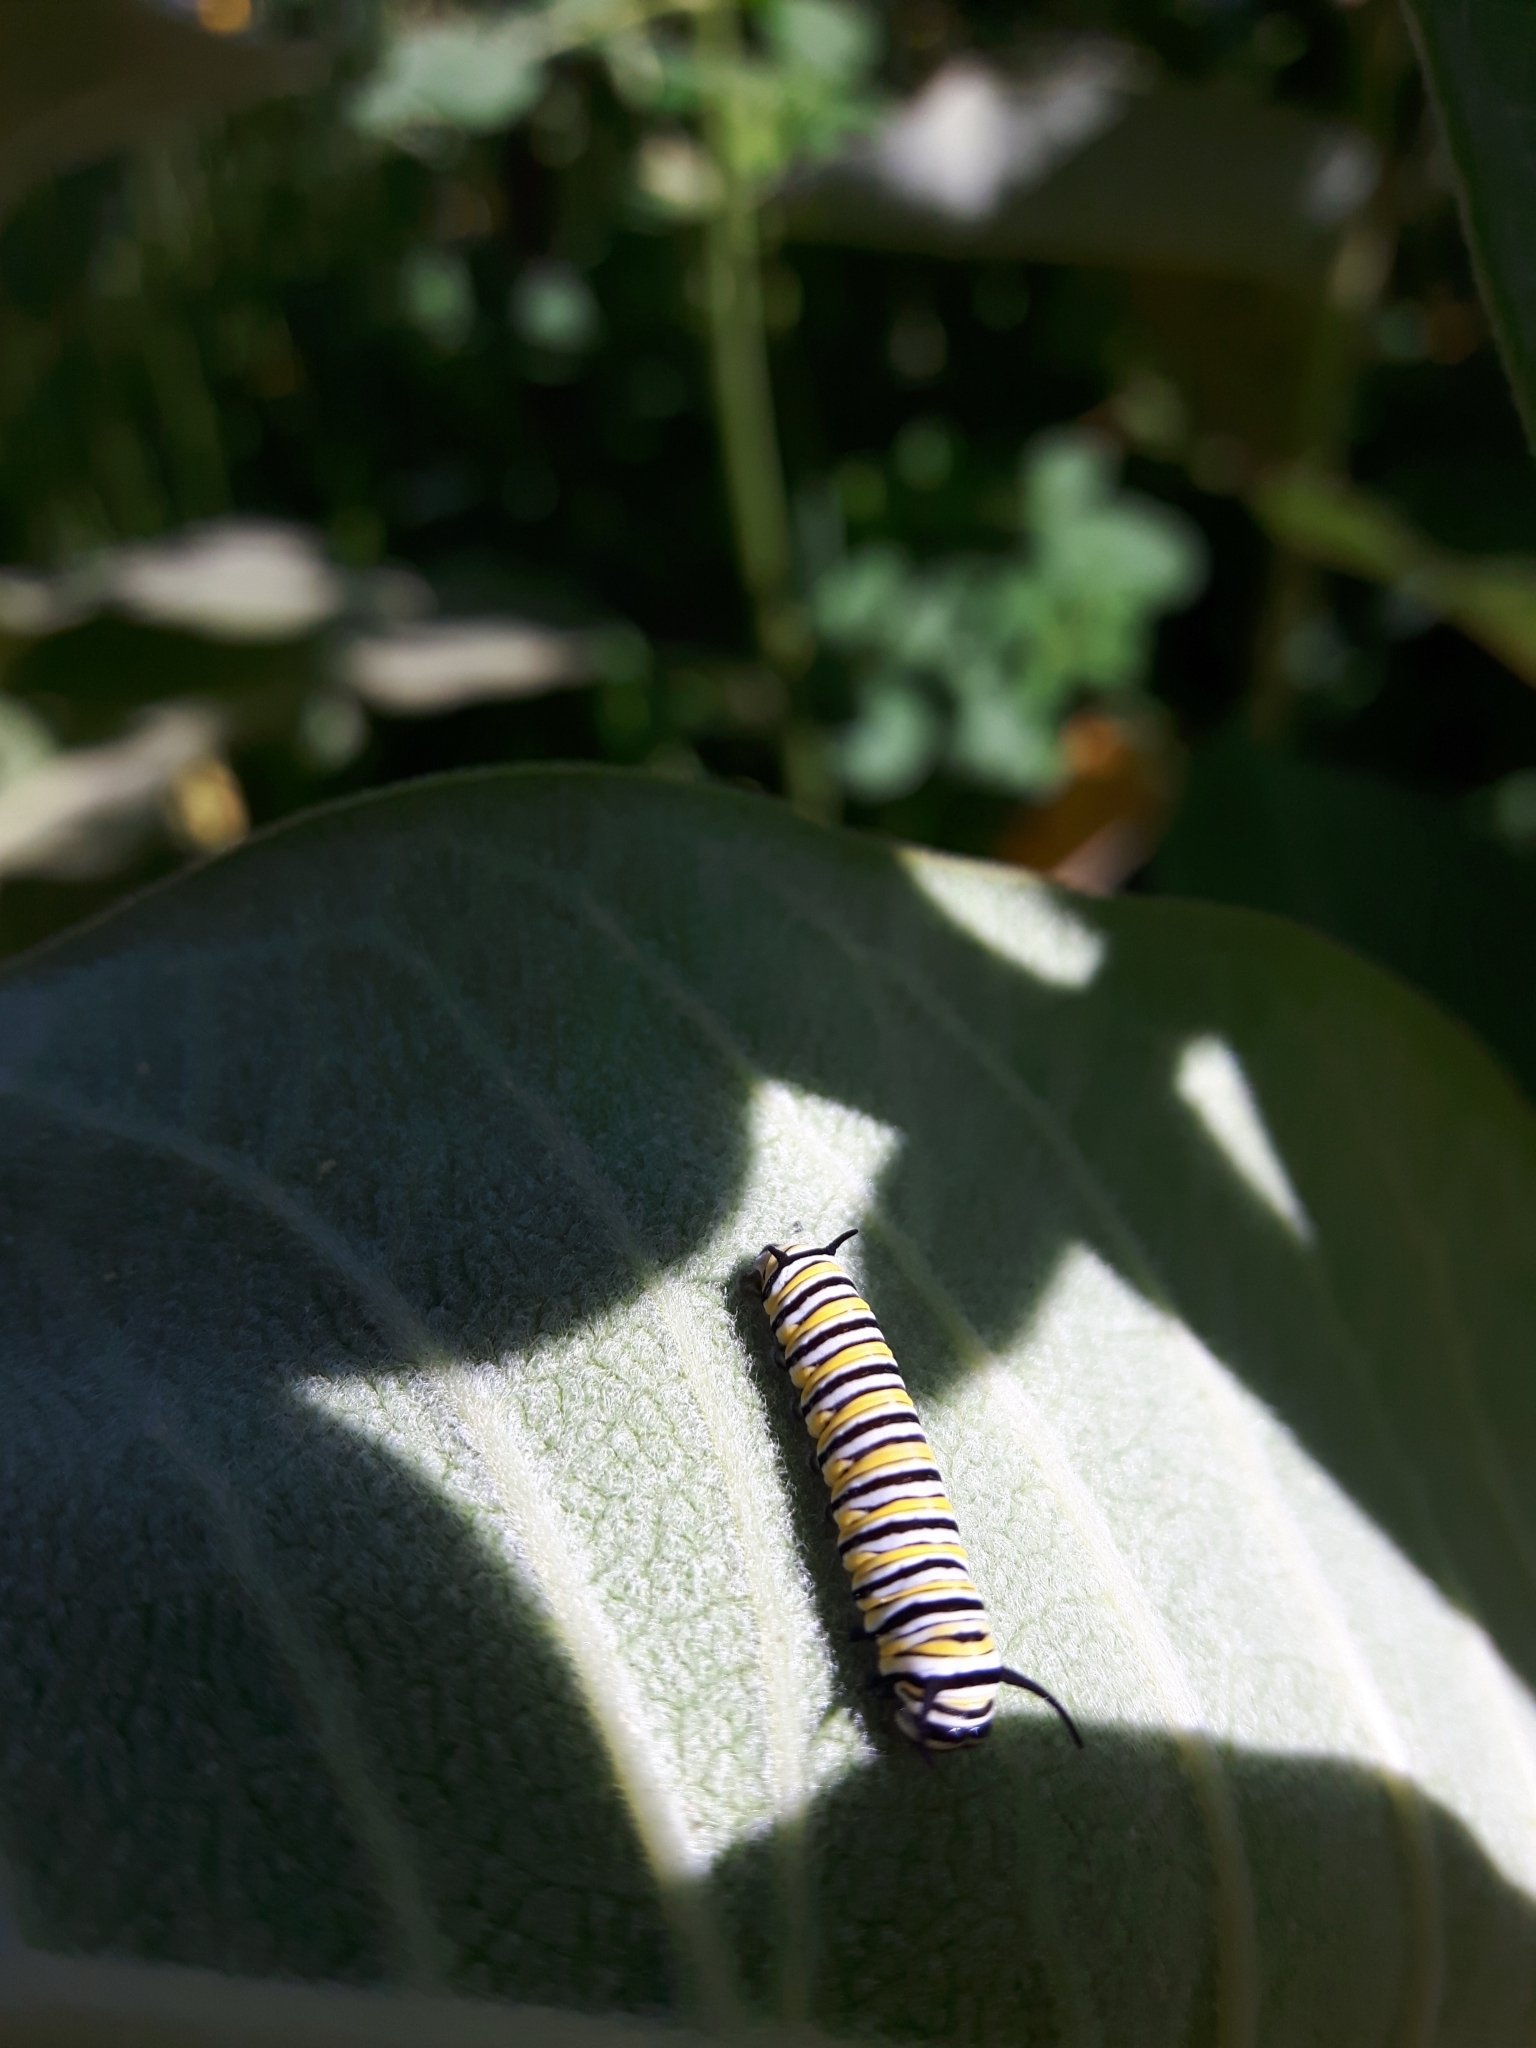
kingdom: Animalia
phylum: Arthropoda
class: Insecta
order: Lepidoptera
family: Nymphalidae
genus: Danaus
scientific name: Danaus plexippus
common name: Monarch
